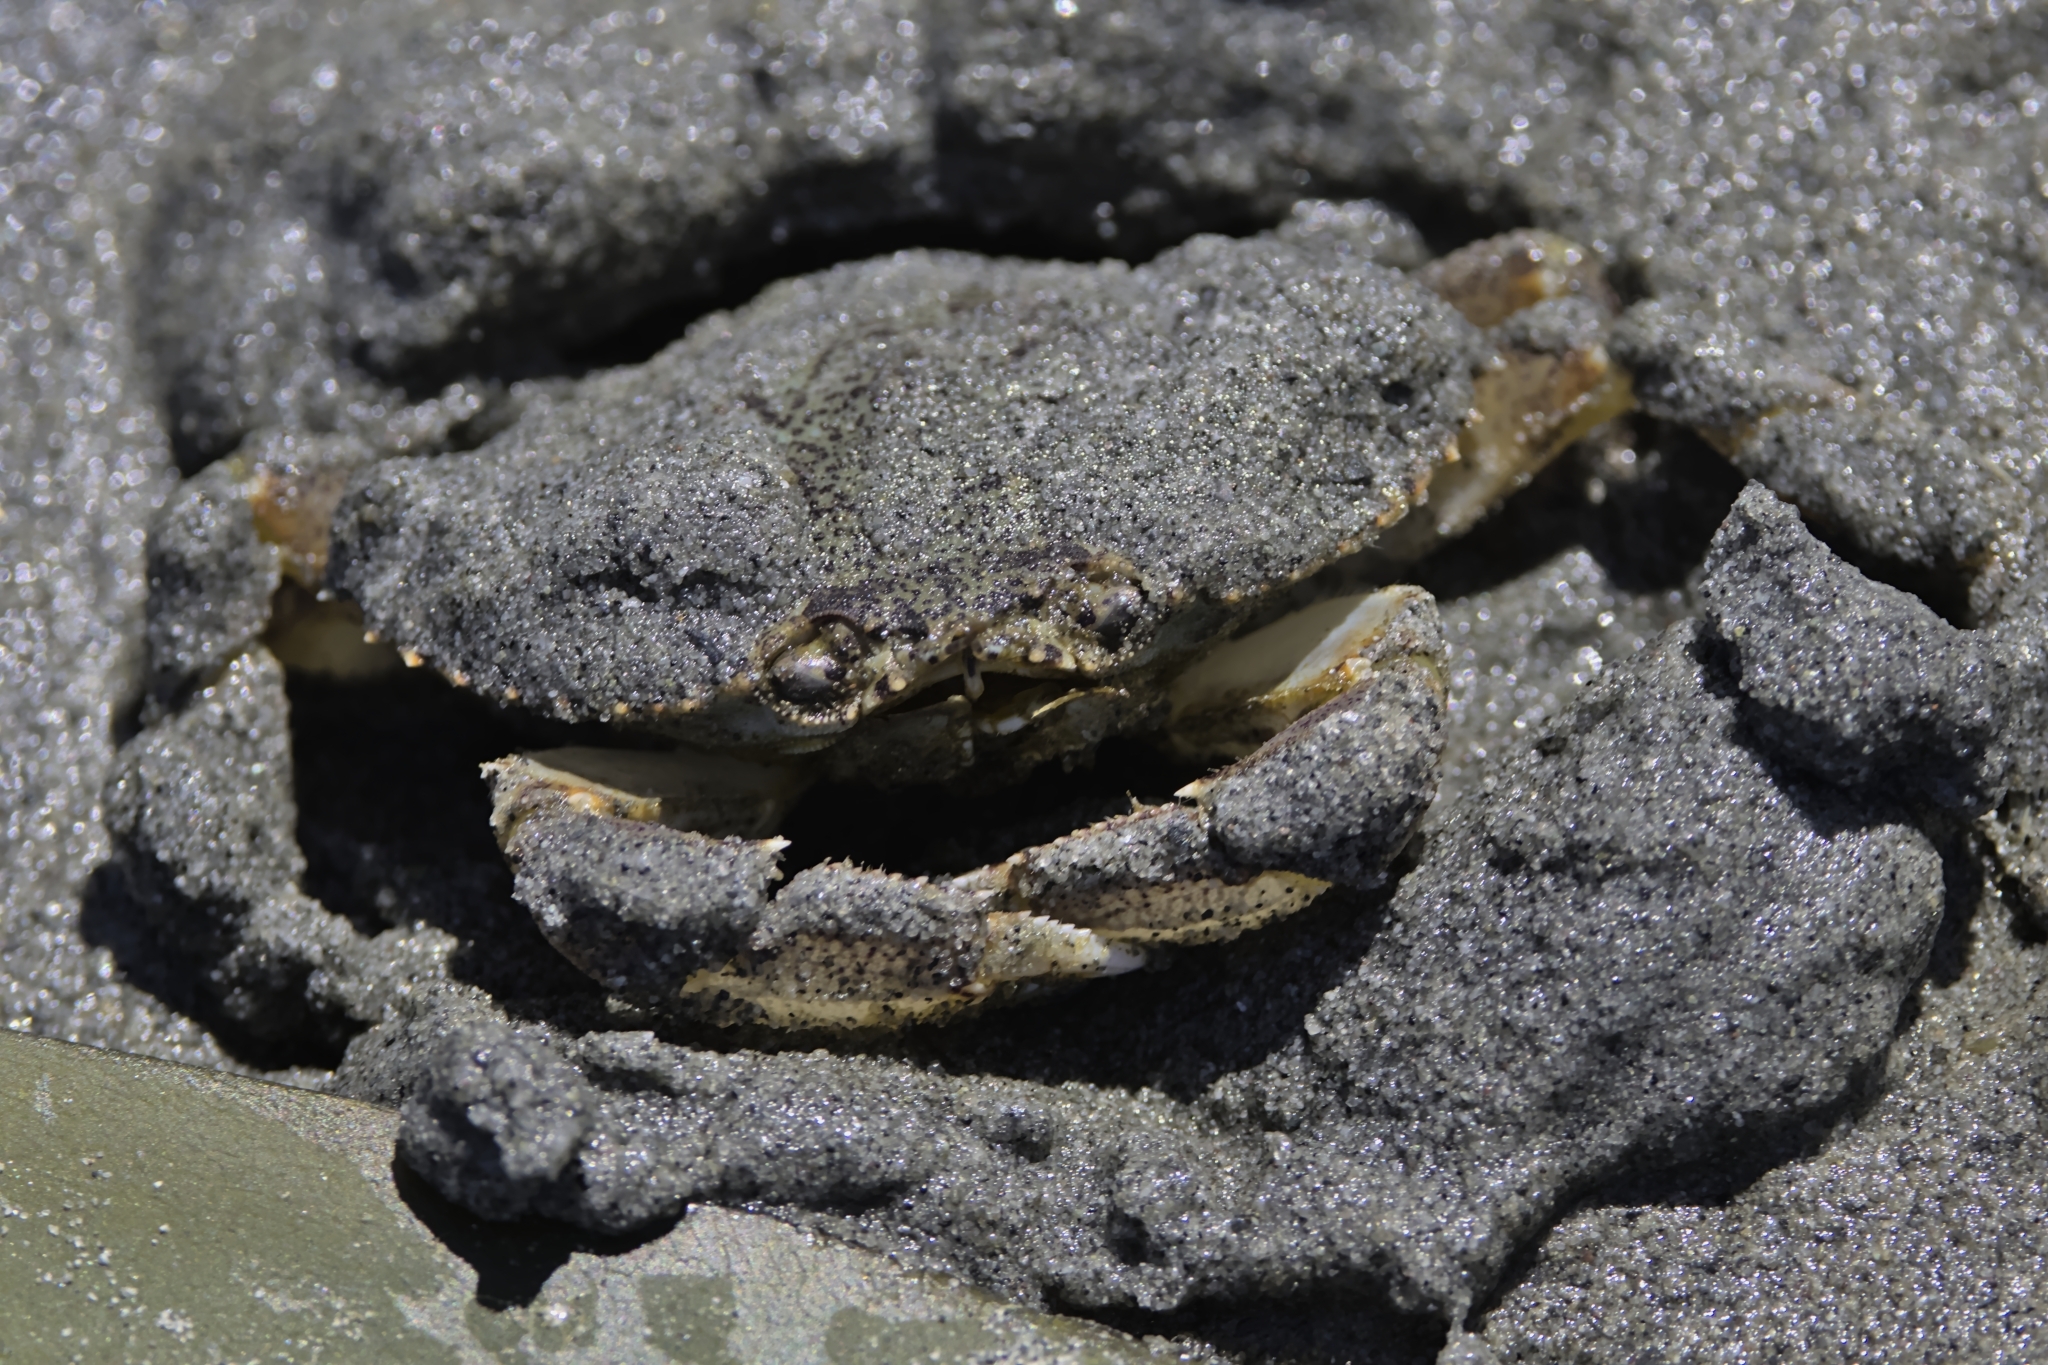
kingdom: Animalia
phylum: Arthropoda
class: Malacostraca
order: Decapoda
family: Cancridae
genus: Metacarcinus
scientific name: Metacarcinus magister
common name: Californian crab
